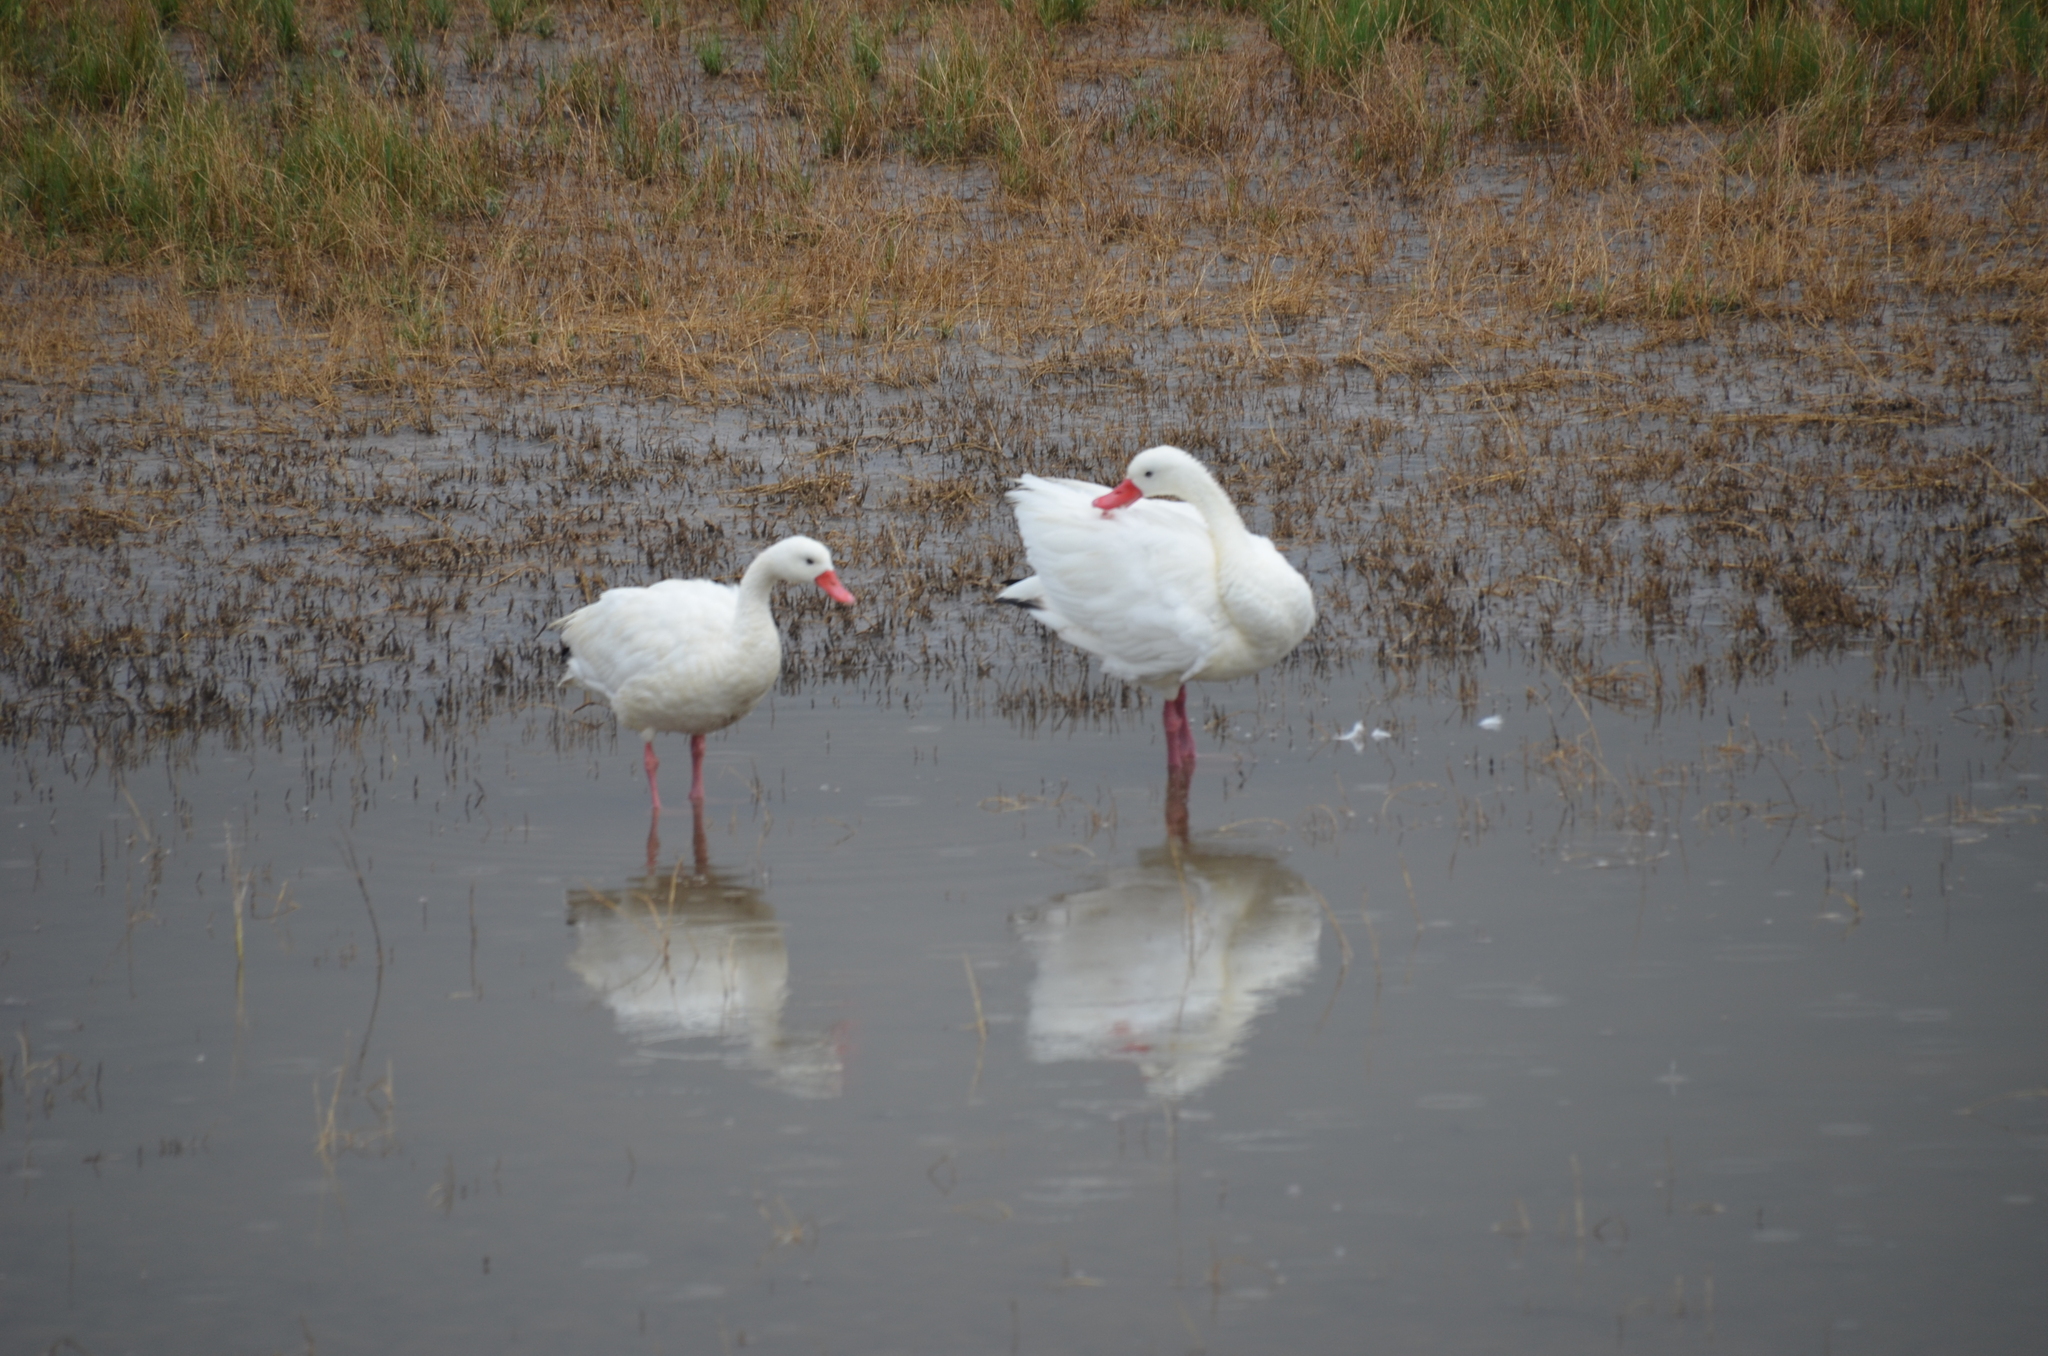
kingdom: Animalia
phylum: Chordata
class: Aves
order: Anseriformes
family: Anatidae
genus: Coscoroba
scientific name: Coscoroba coscoroba
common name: Coscoroba swan
